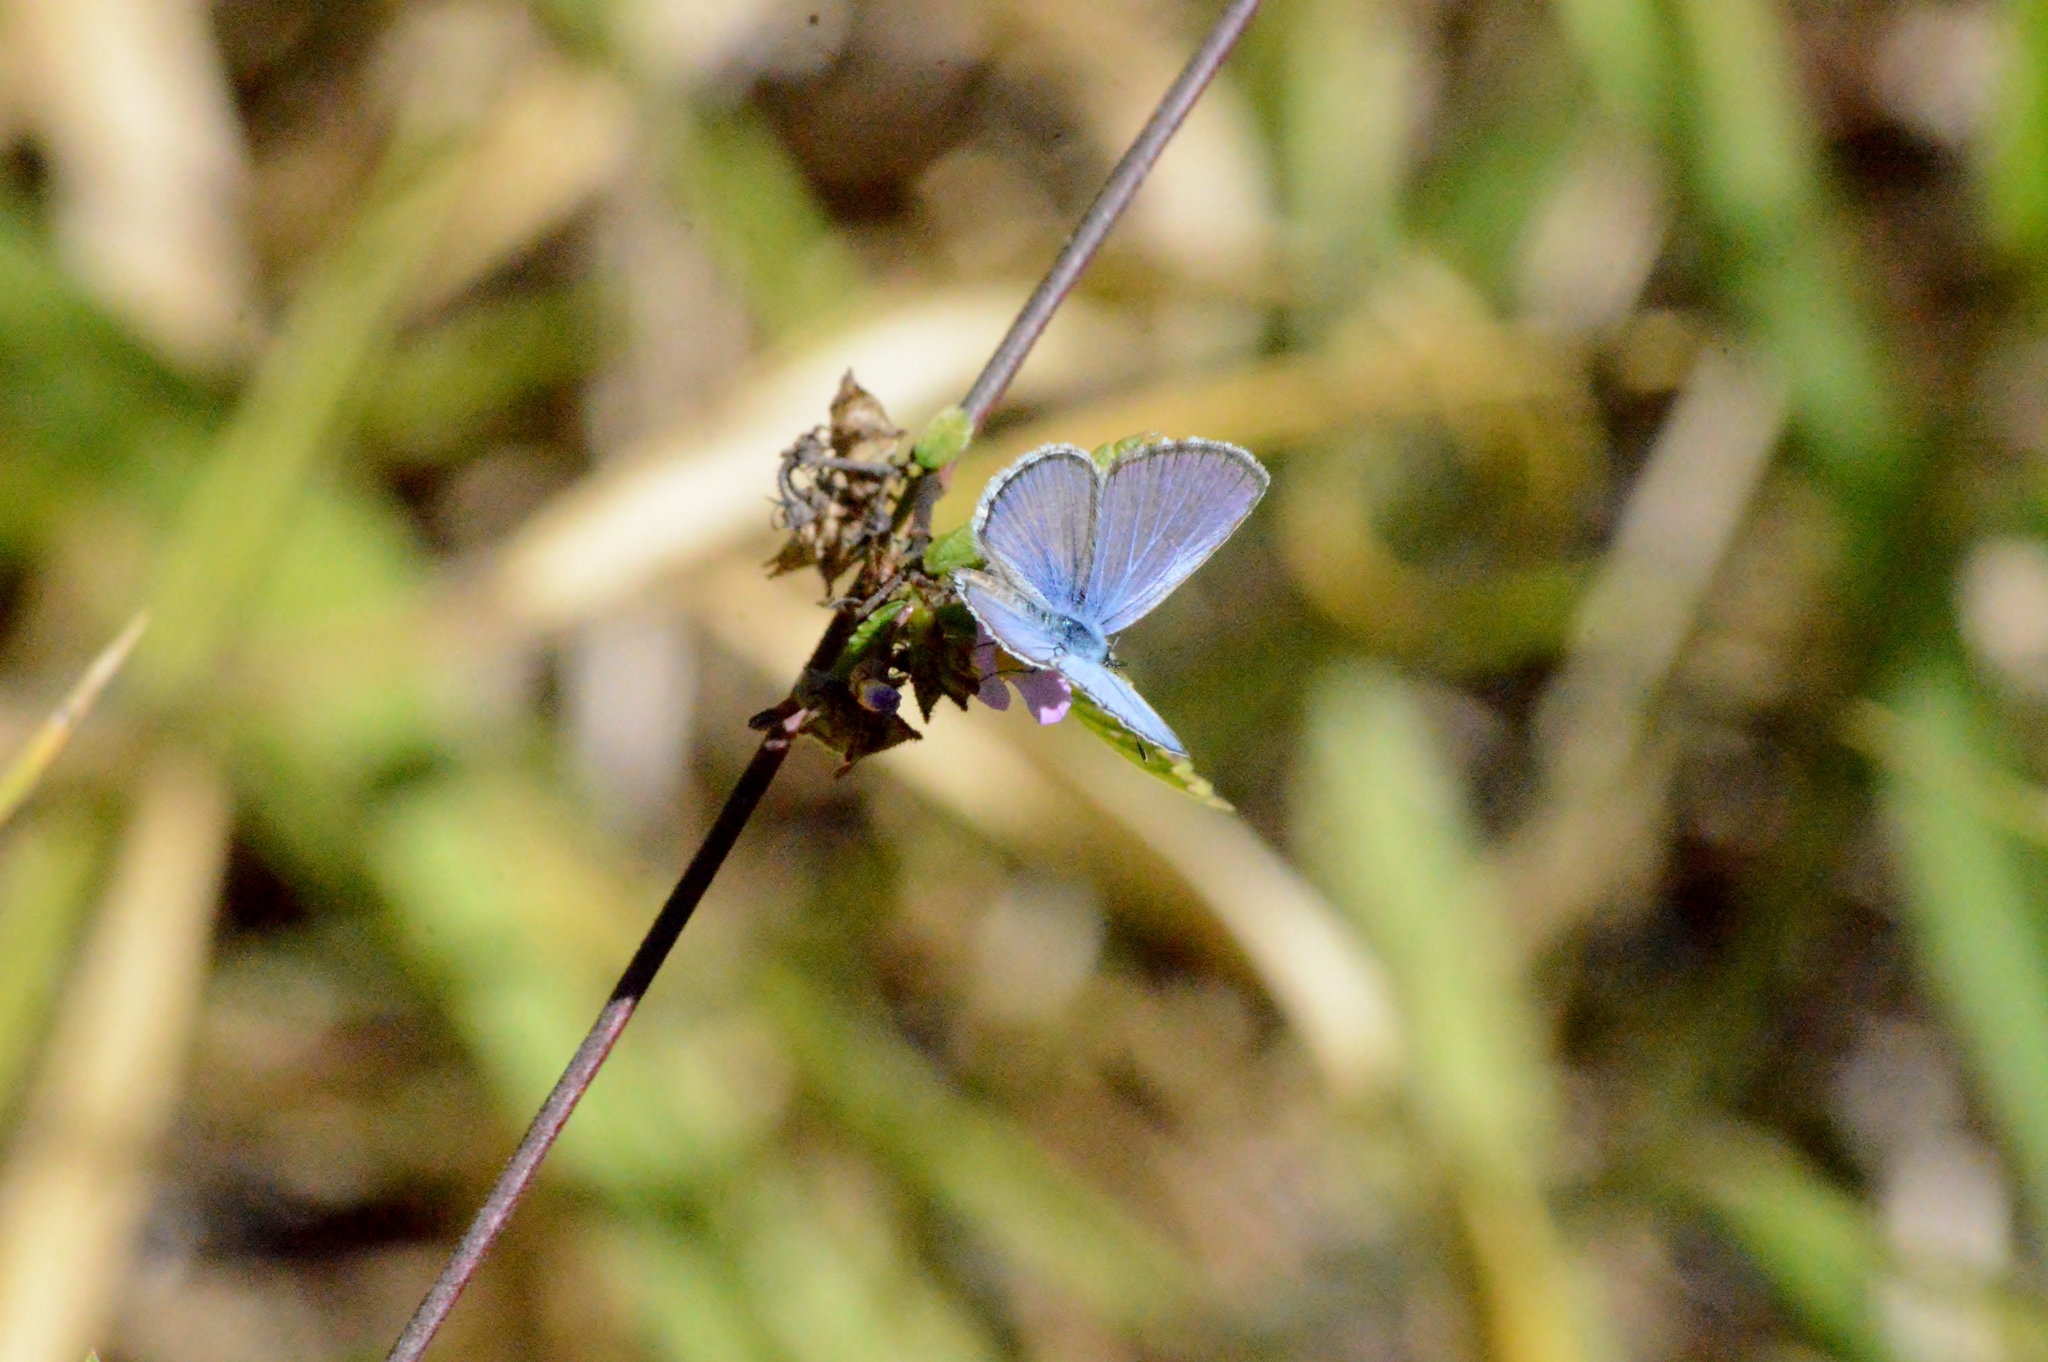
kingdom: Animalia
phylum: Arthropoda
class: Insecta
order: Lepidoptera
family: Lycaenidae
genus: Hemiargus
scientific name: Hemiargus hanno
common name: Common blue
